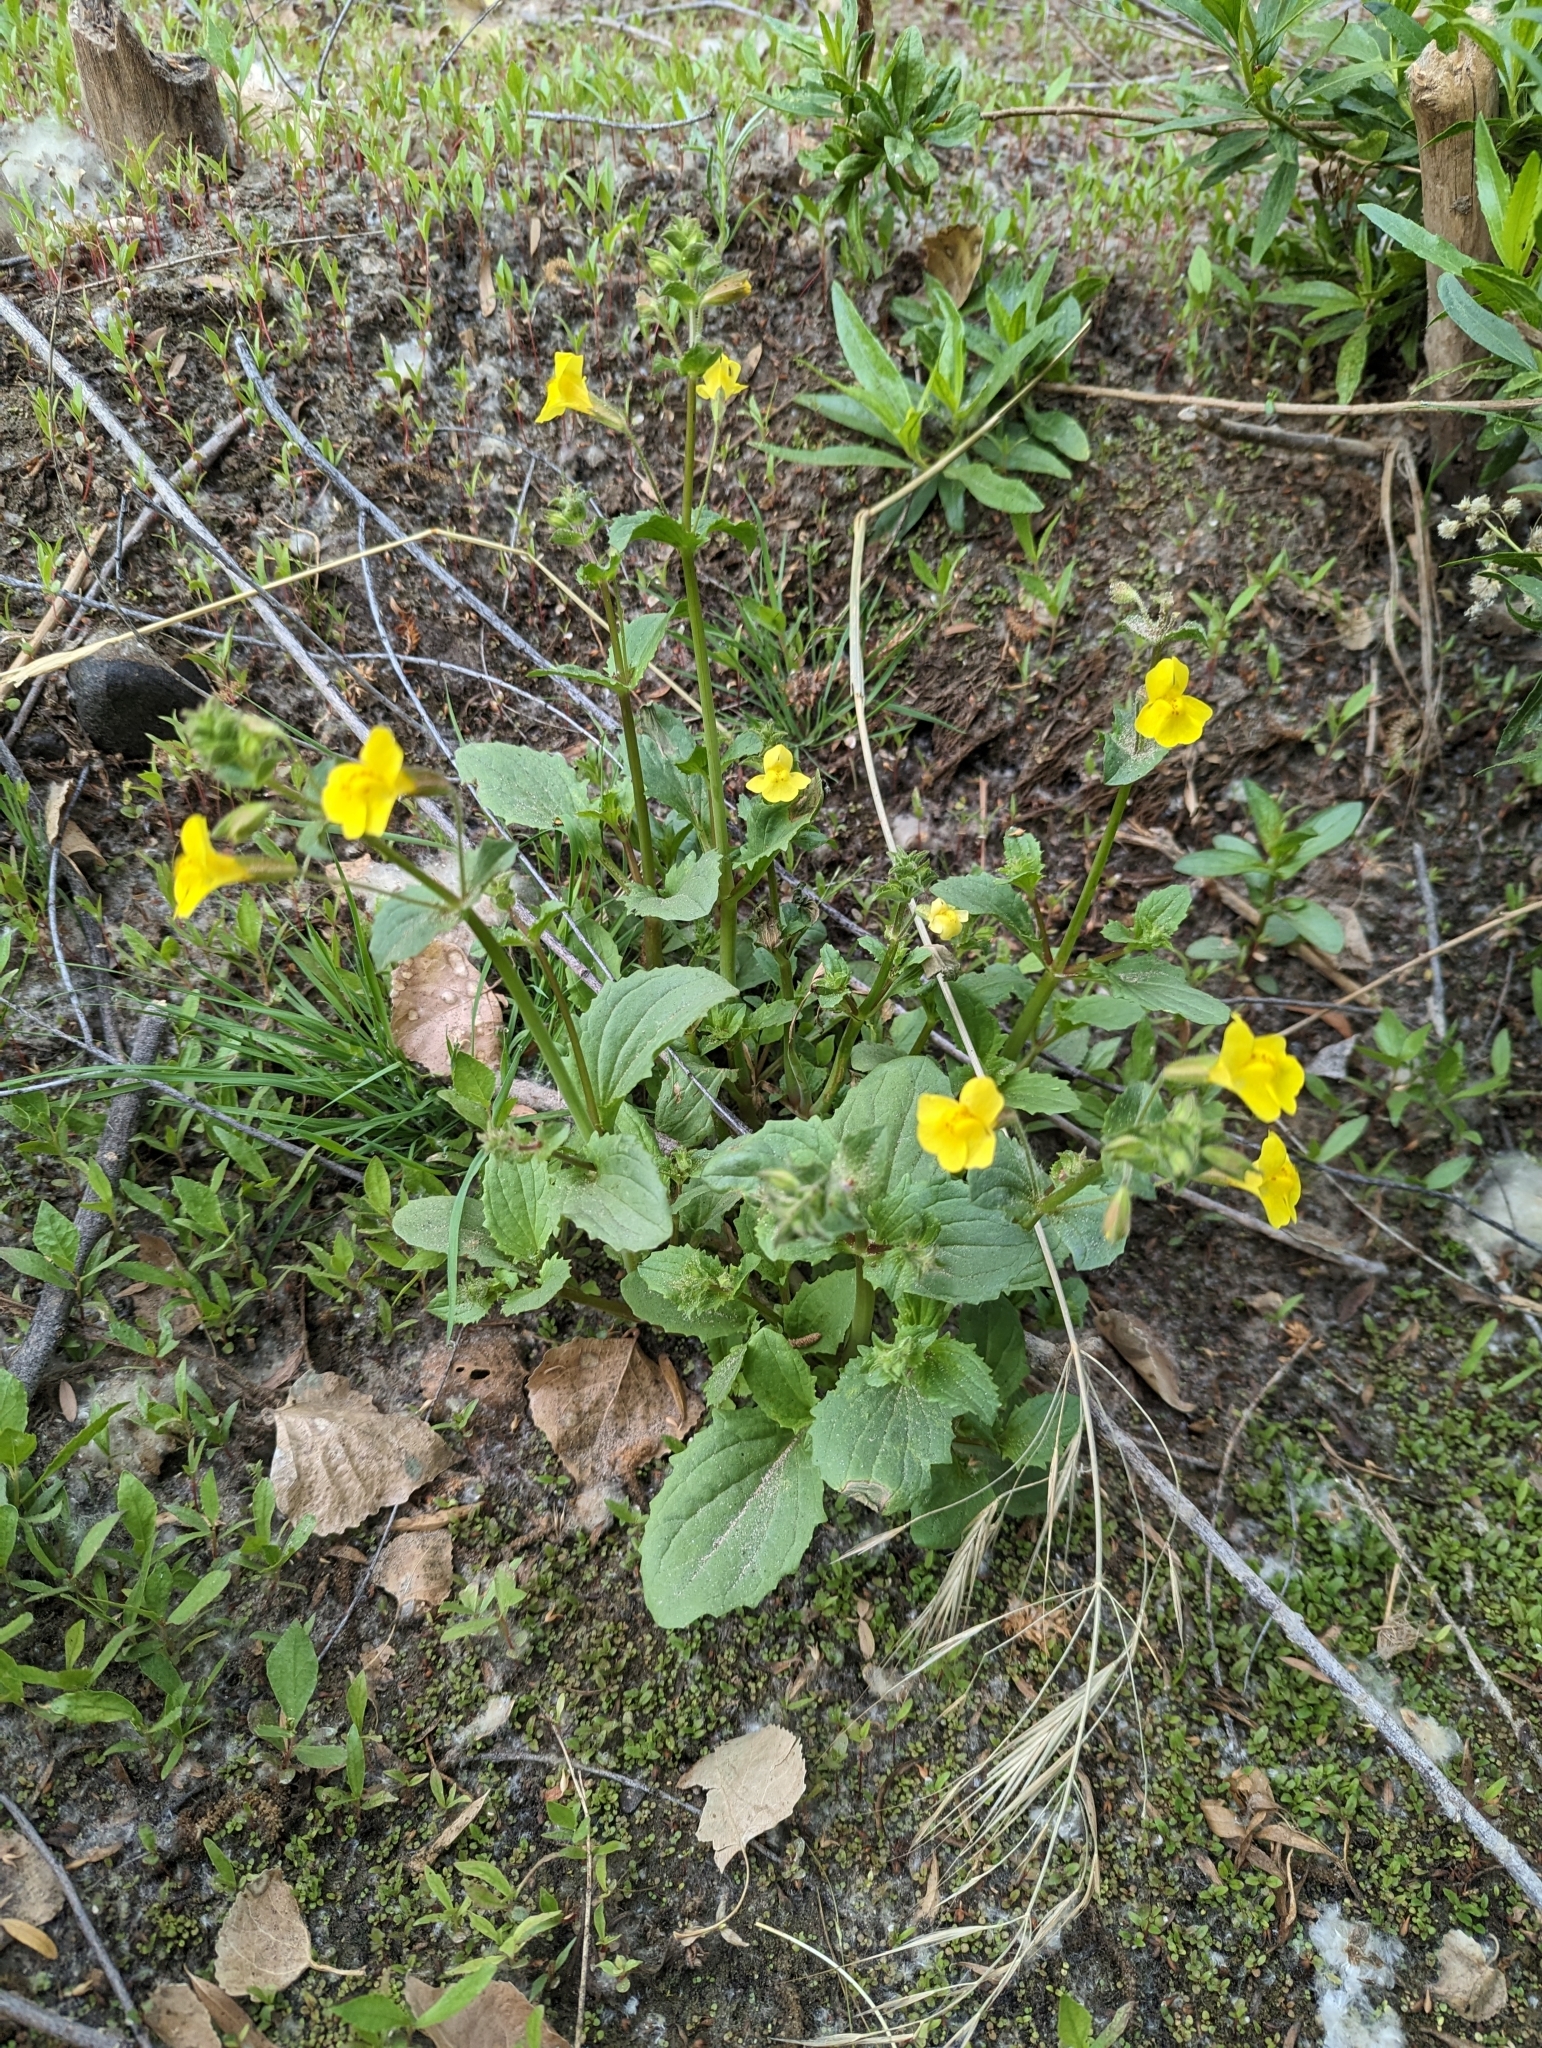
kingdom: Plantae
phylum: Tracheophyta
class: Magnoliopsida
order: Lamiales
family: Phrymaceae
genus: Erythranthe
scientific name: Erythranthe guttata
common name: Monkeyflower
